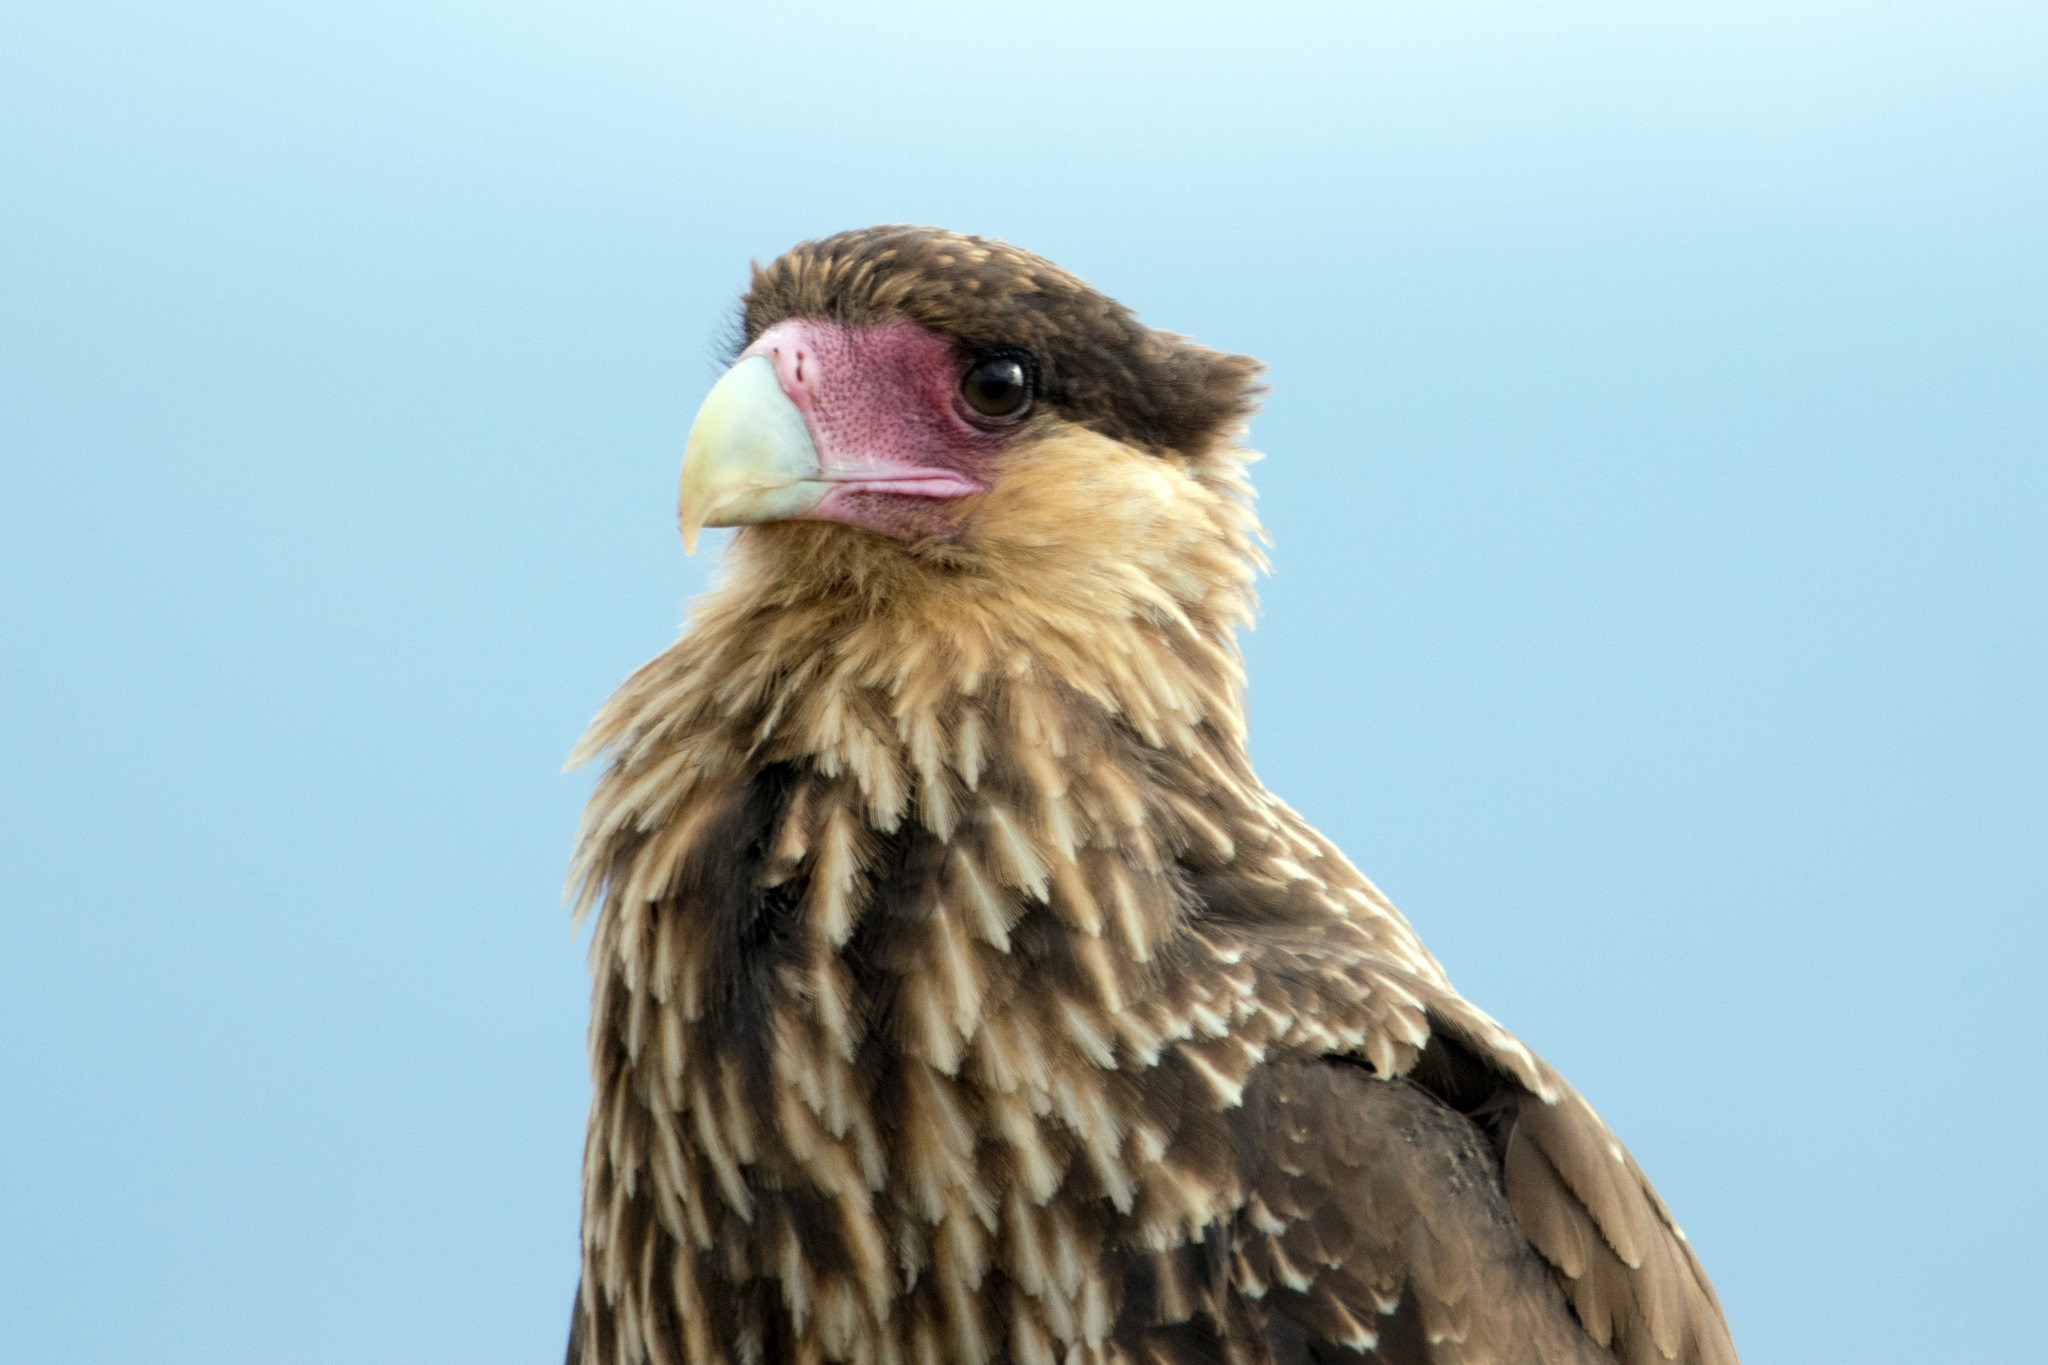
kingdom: Animalia
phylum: Chordata
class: Aves
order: Falconiformes
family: Falconidae
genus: Caracara
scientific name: Caracara plancus
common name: Southern caracara
